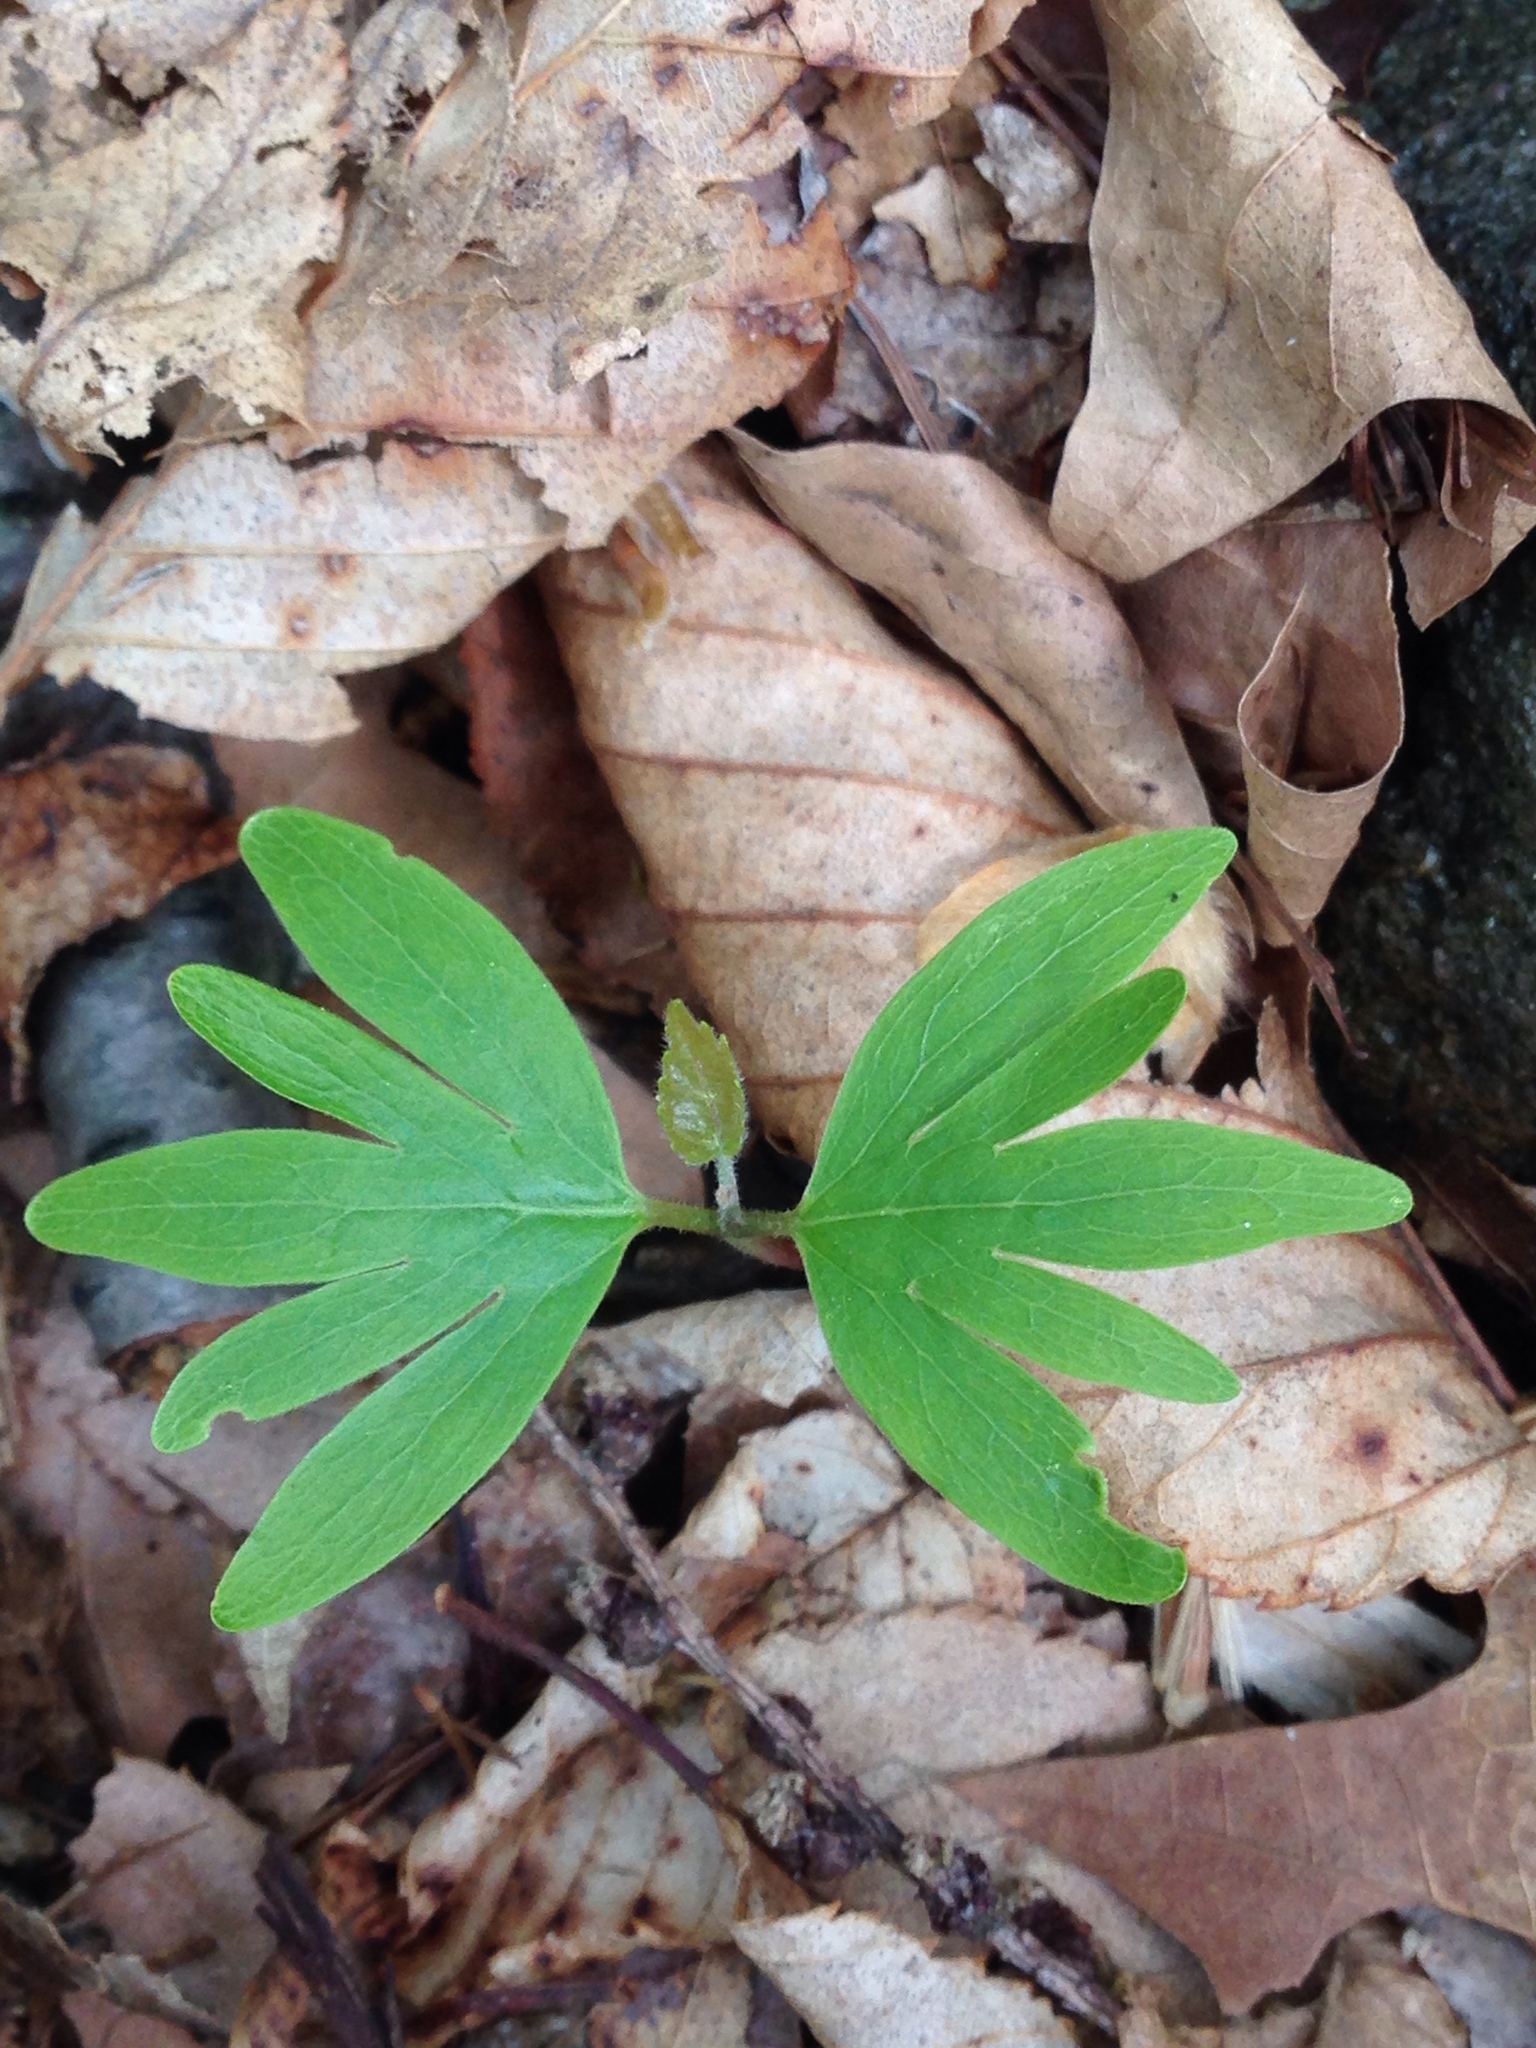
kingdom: Plantae
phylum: Tracheophyta
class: Magnoliopsida
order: Malvales
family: Malvaceae
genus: Tilia
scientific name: Tilia americana
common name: Basswood
